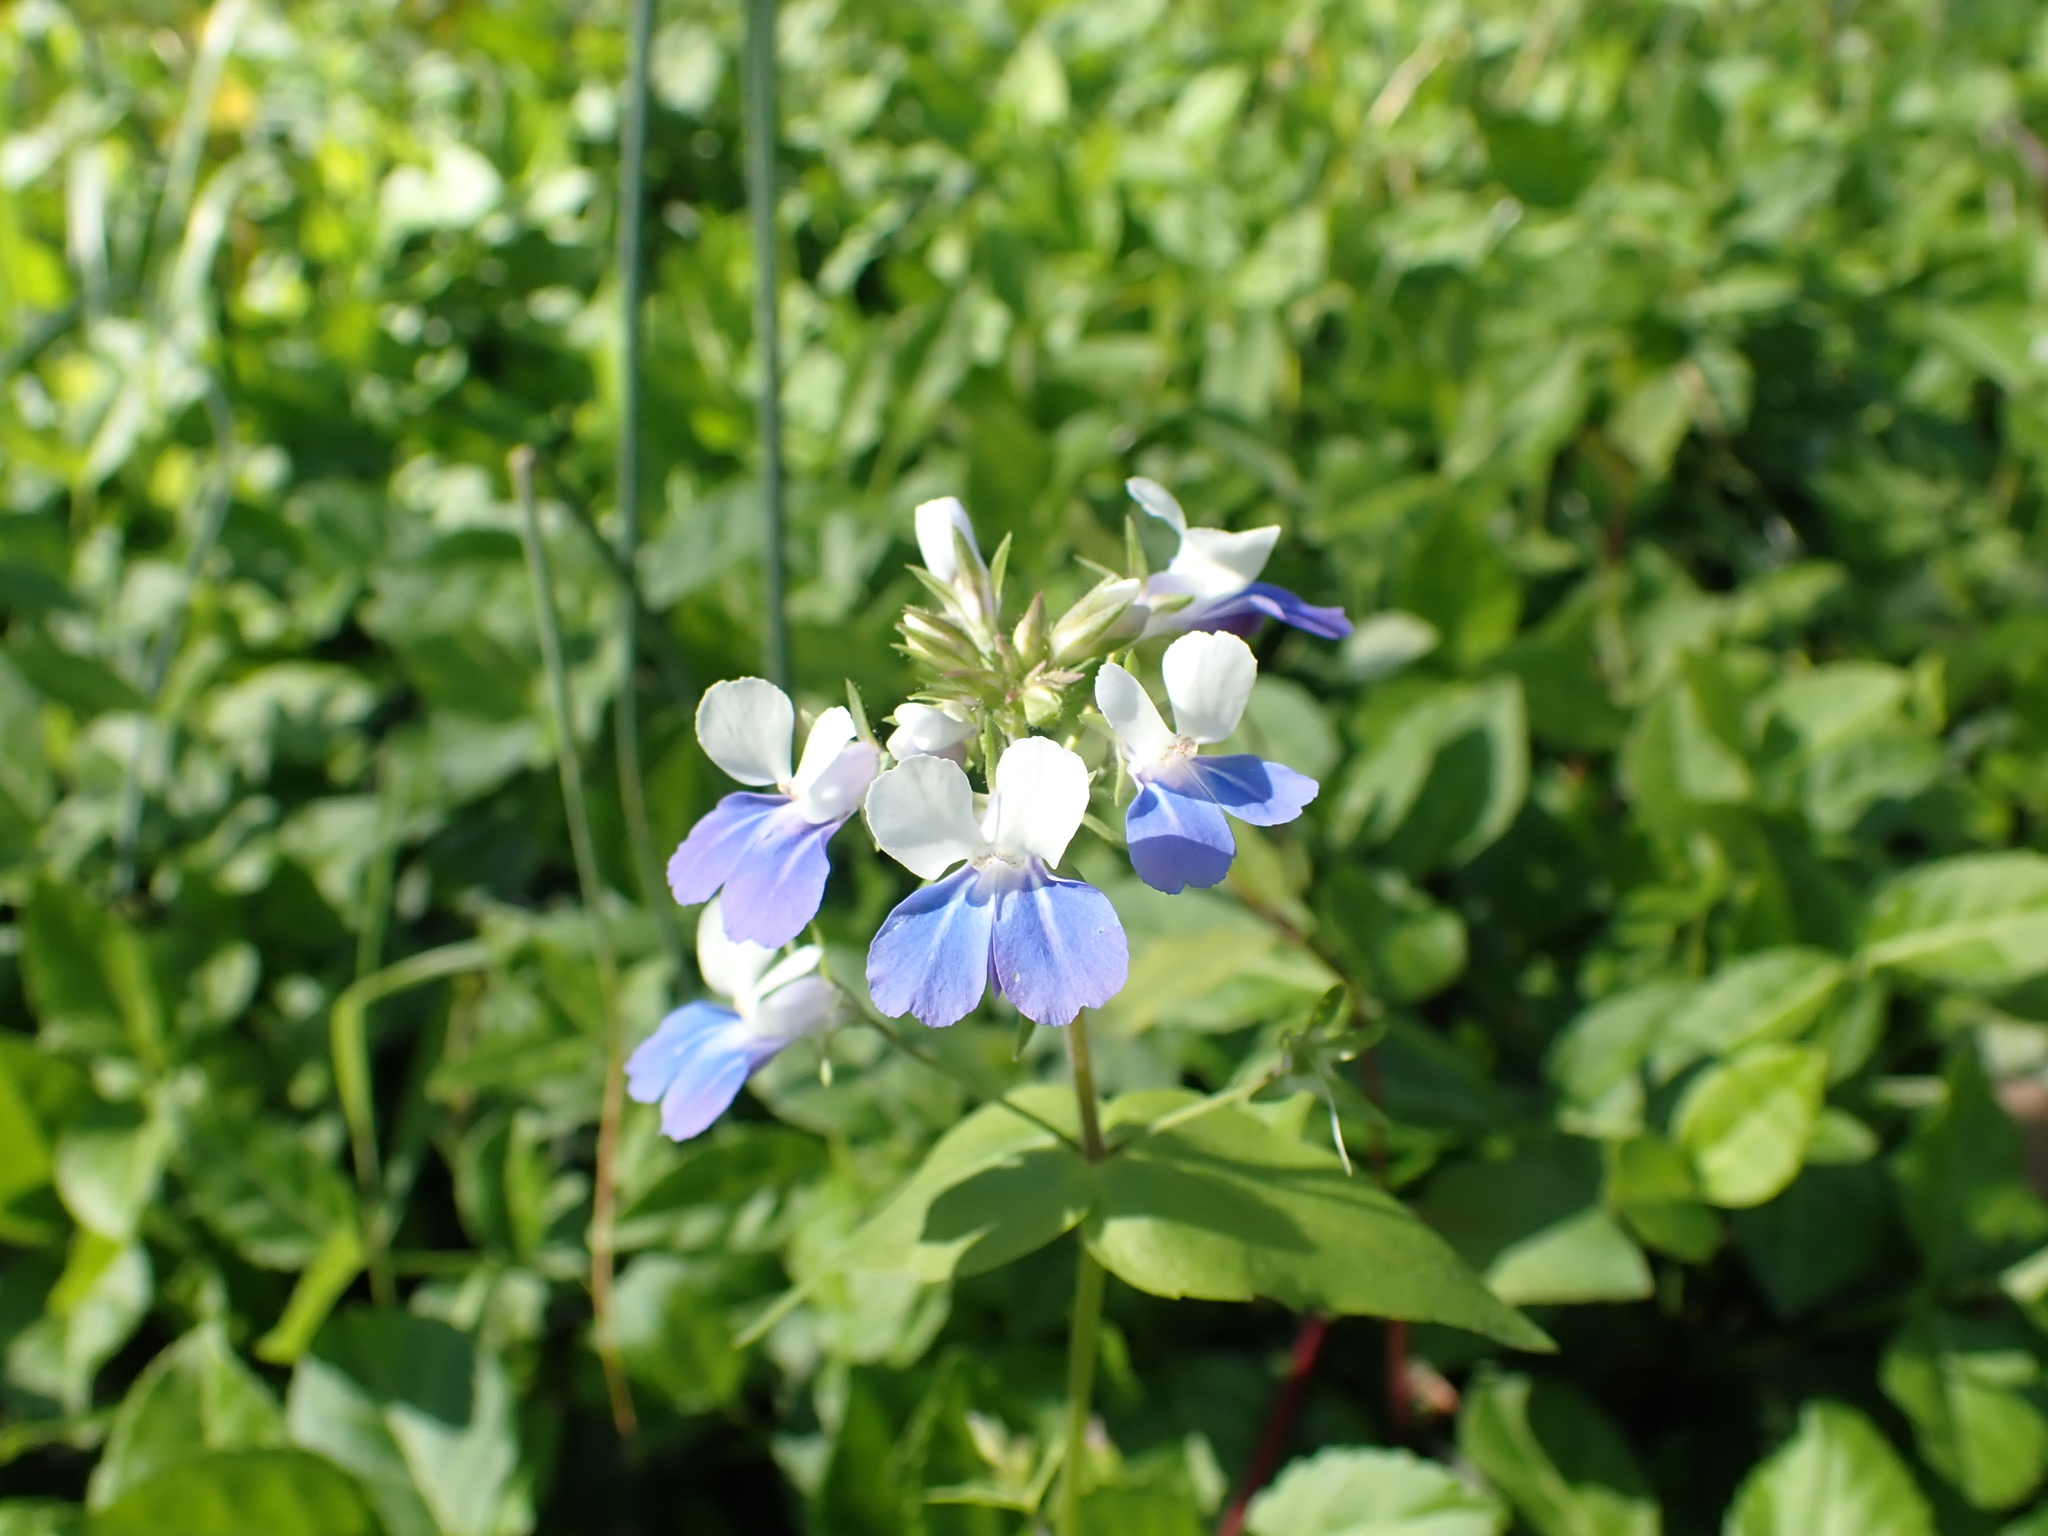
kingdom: Plantae
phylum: Tracheophyta
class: Magnoliopsida
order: Lamiales
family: Plantaginaceae
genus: Collinsia
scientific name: Collinsia verna
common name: Broad-leaved collinsia
